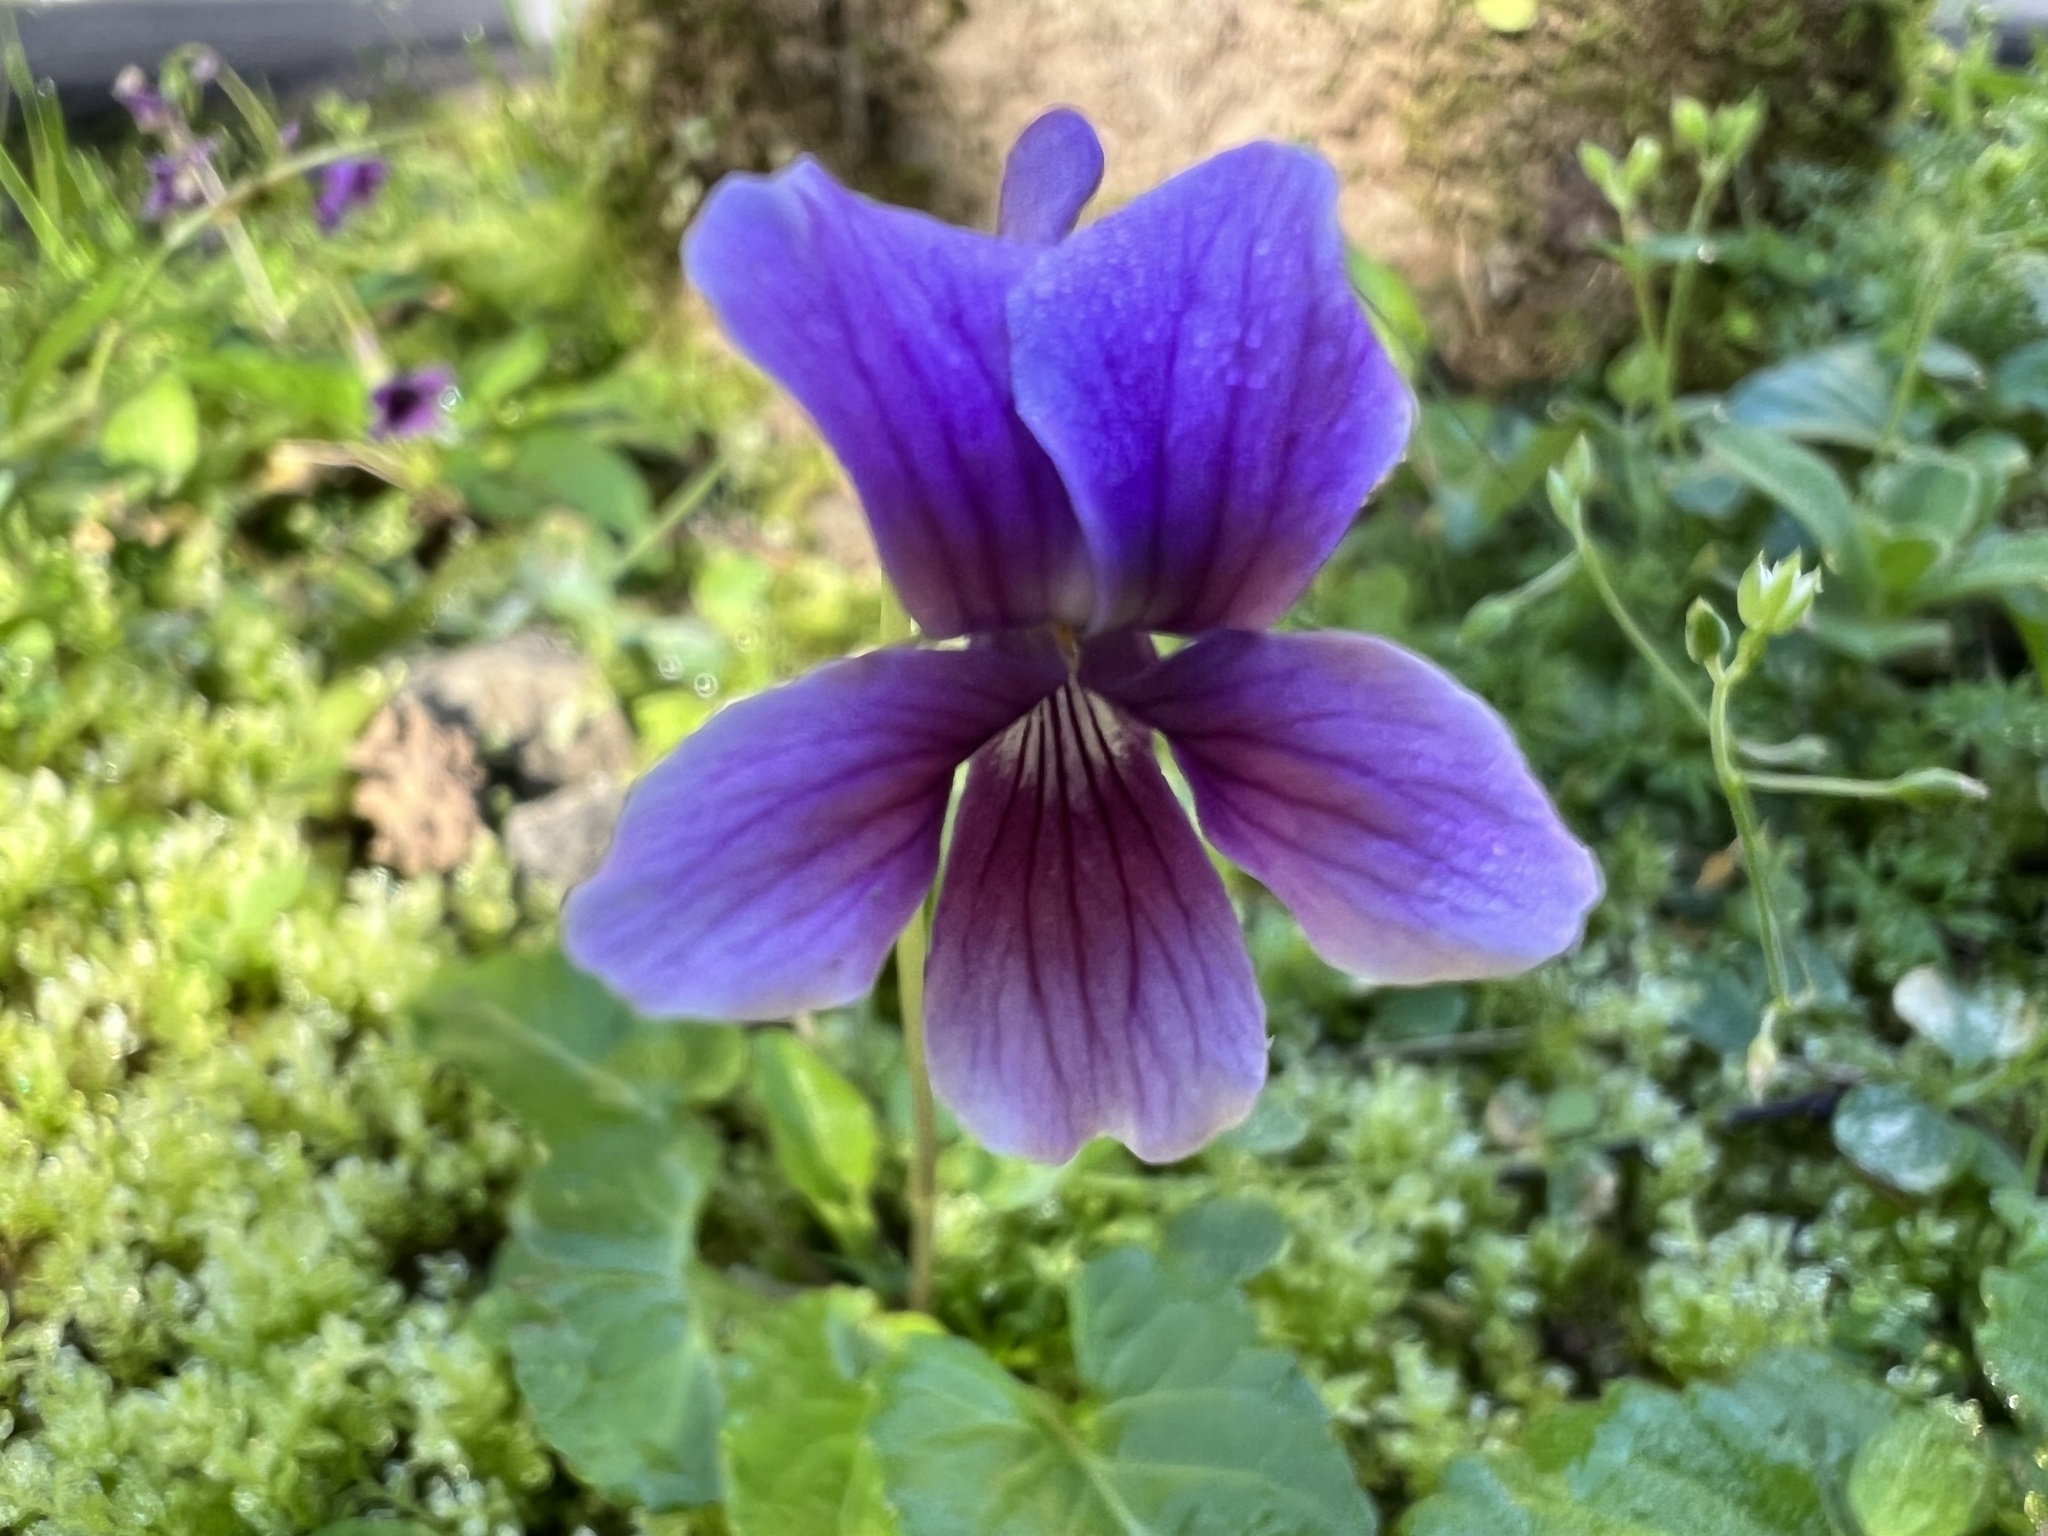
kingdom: Plantae
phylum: Tracheophyta
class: Magnoliopsida
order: Malpighiales
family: Violaceae
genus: Viola
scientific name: Viola
